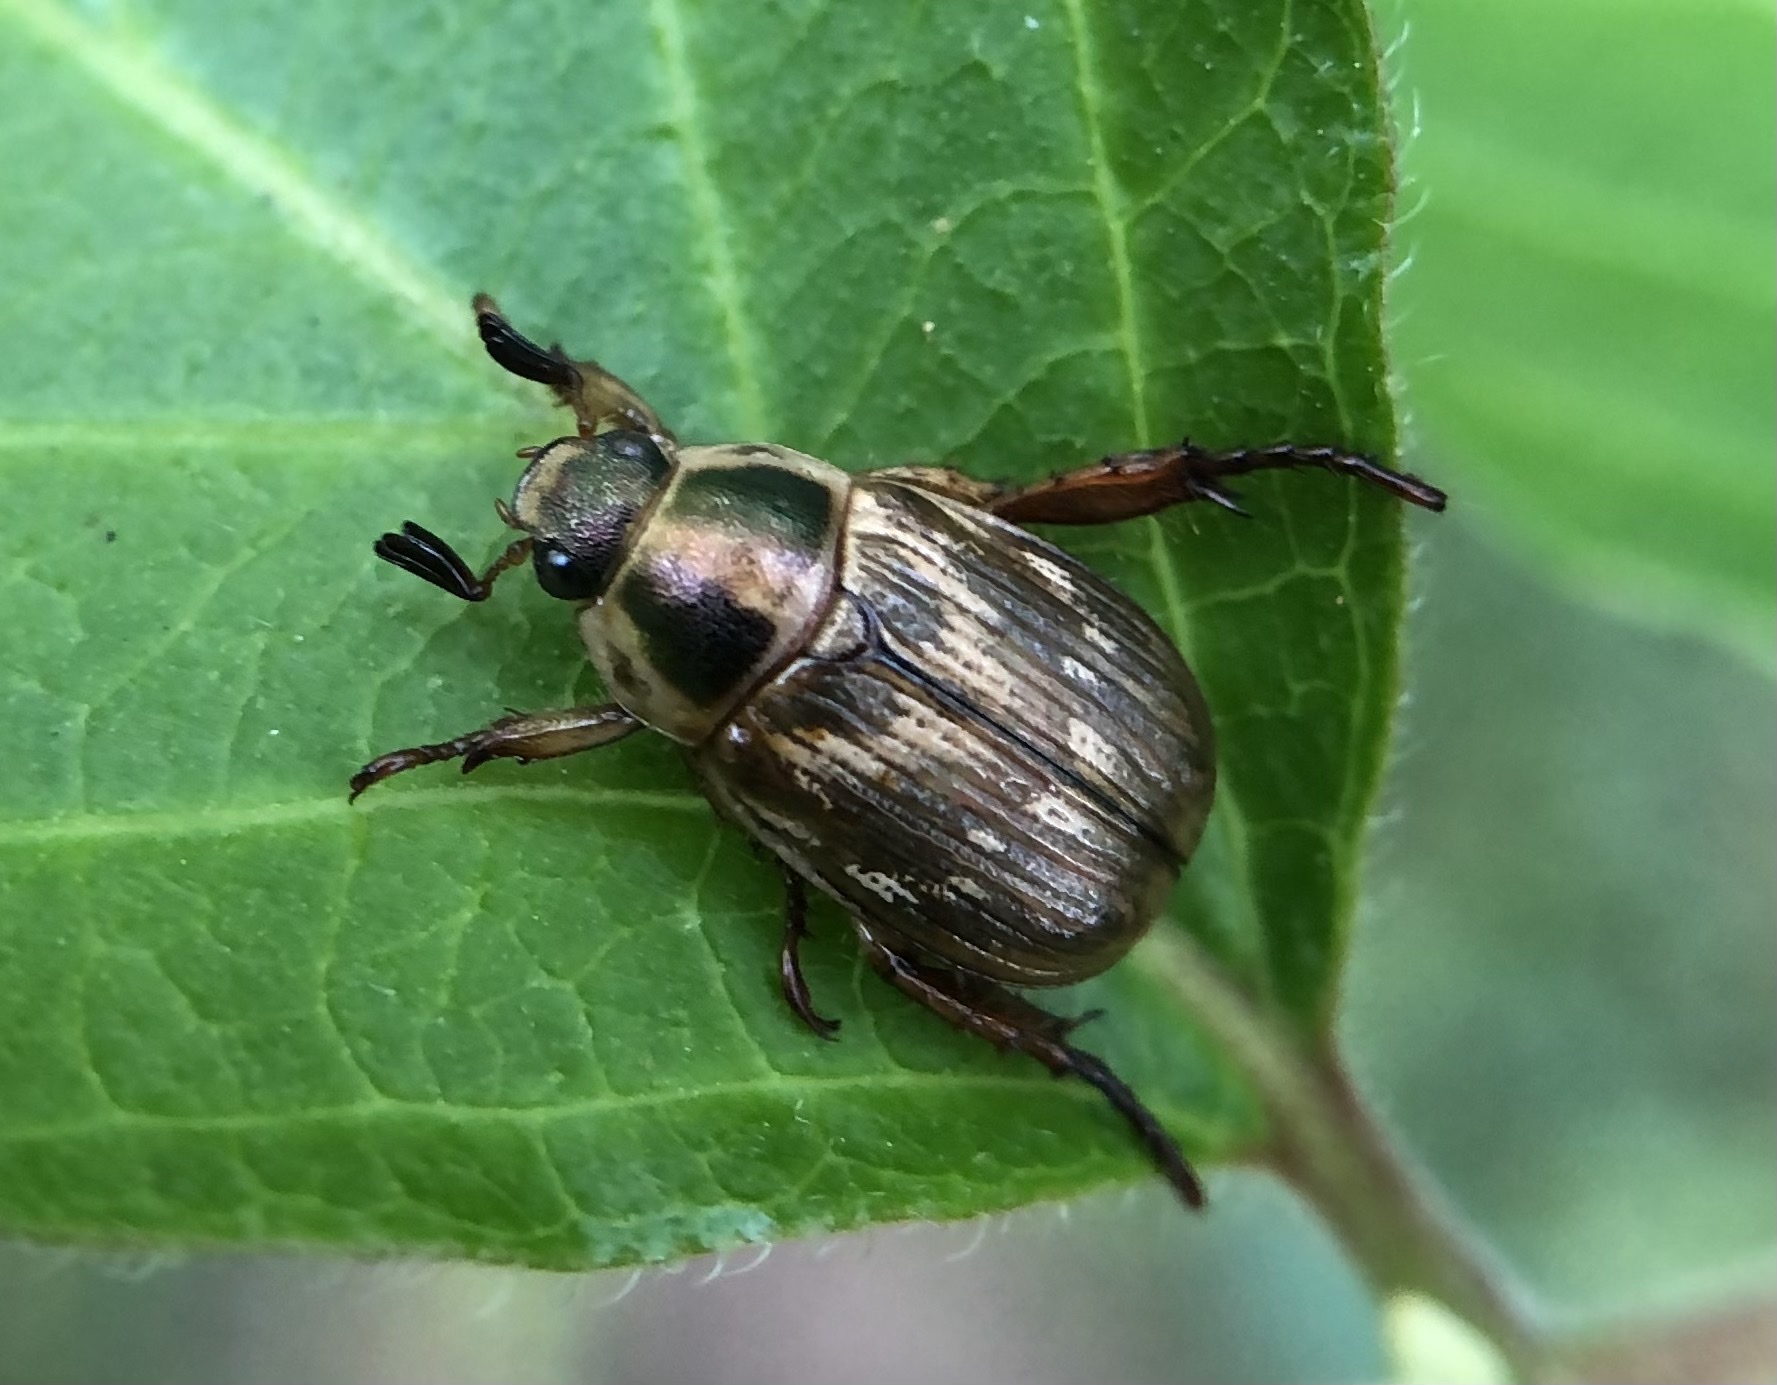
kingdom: Animalia
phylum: Arthropoda
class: Insecta
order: Coleoptera
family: Scarabaeidae
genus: Exomala
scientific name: Exomala orientalis
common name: Oriental beetle
